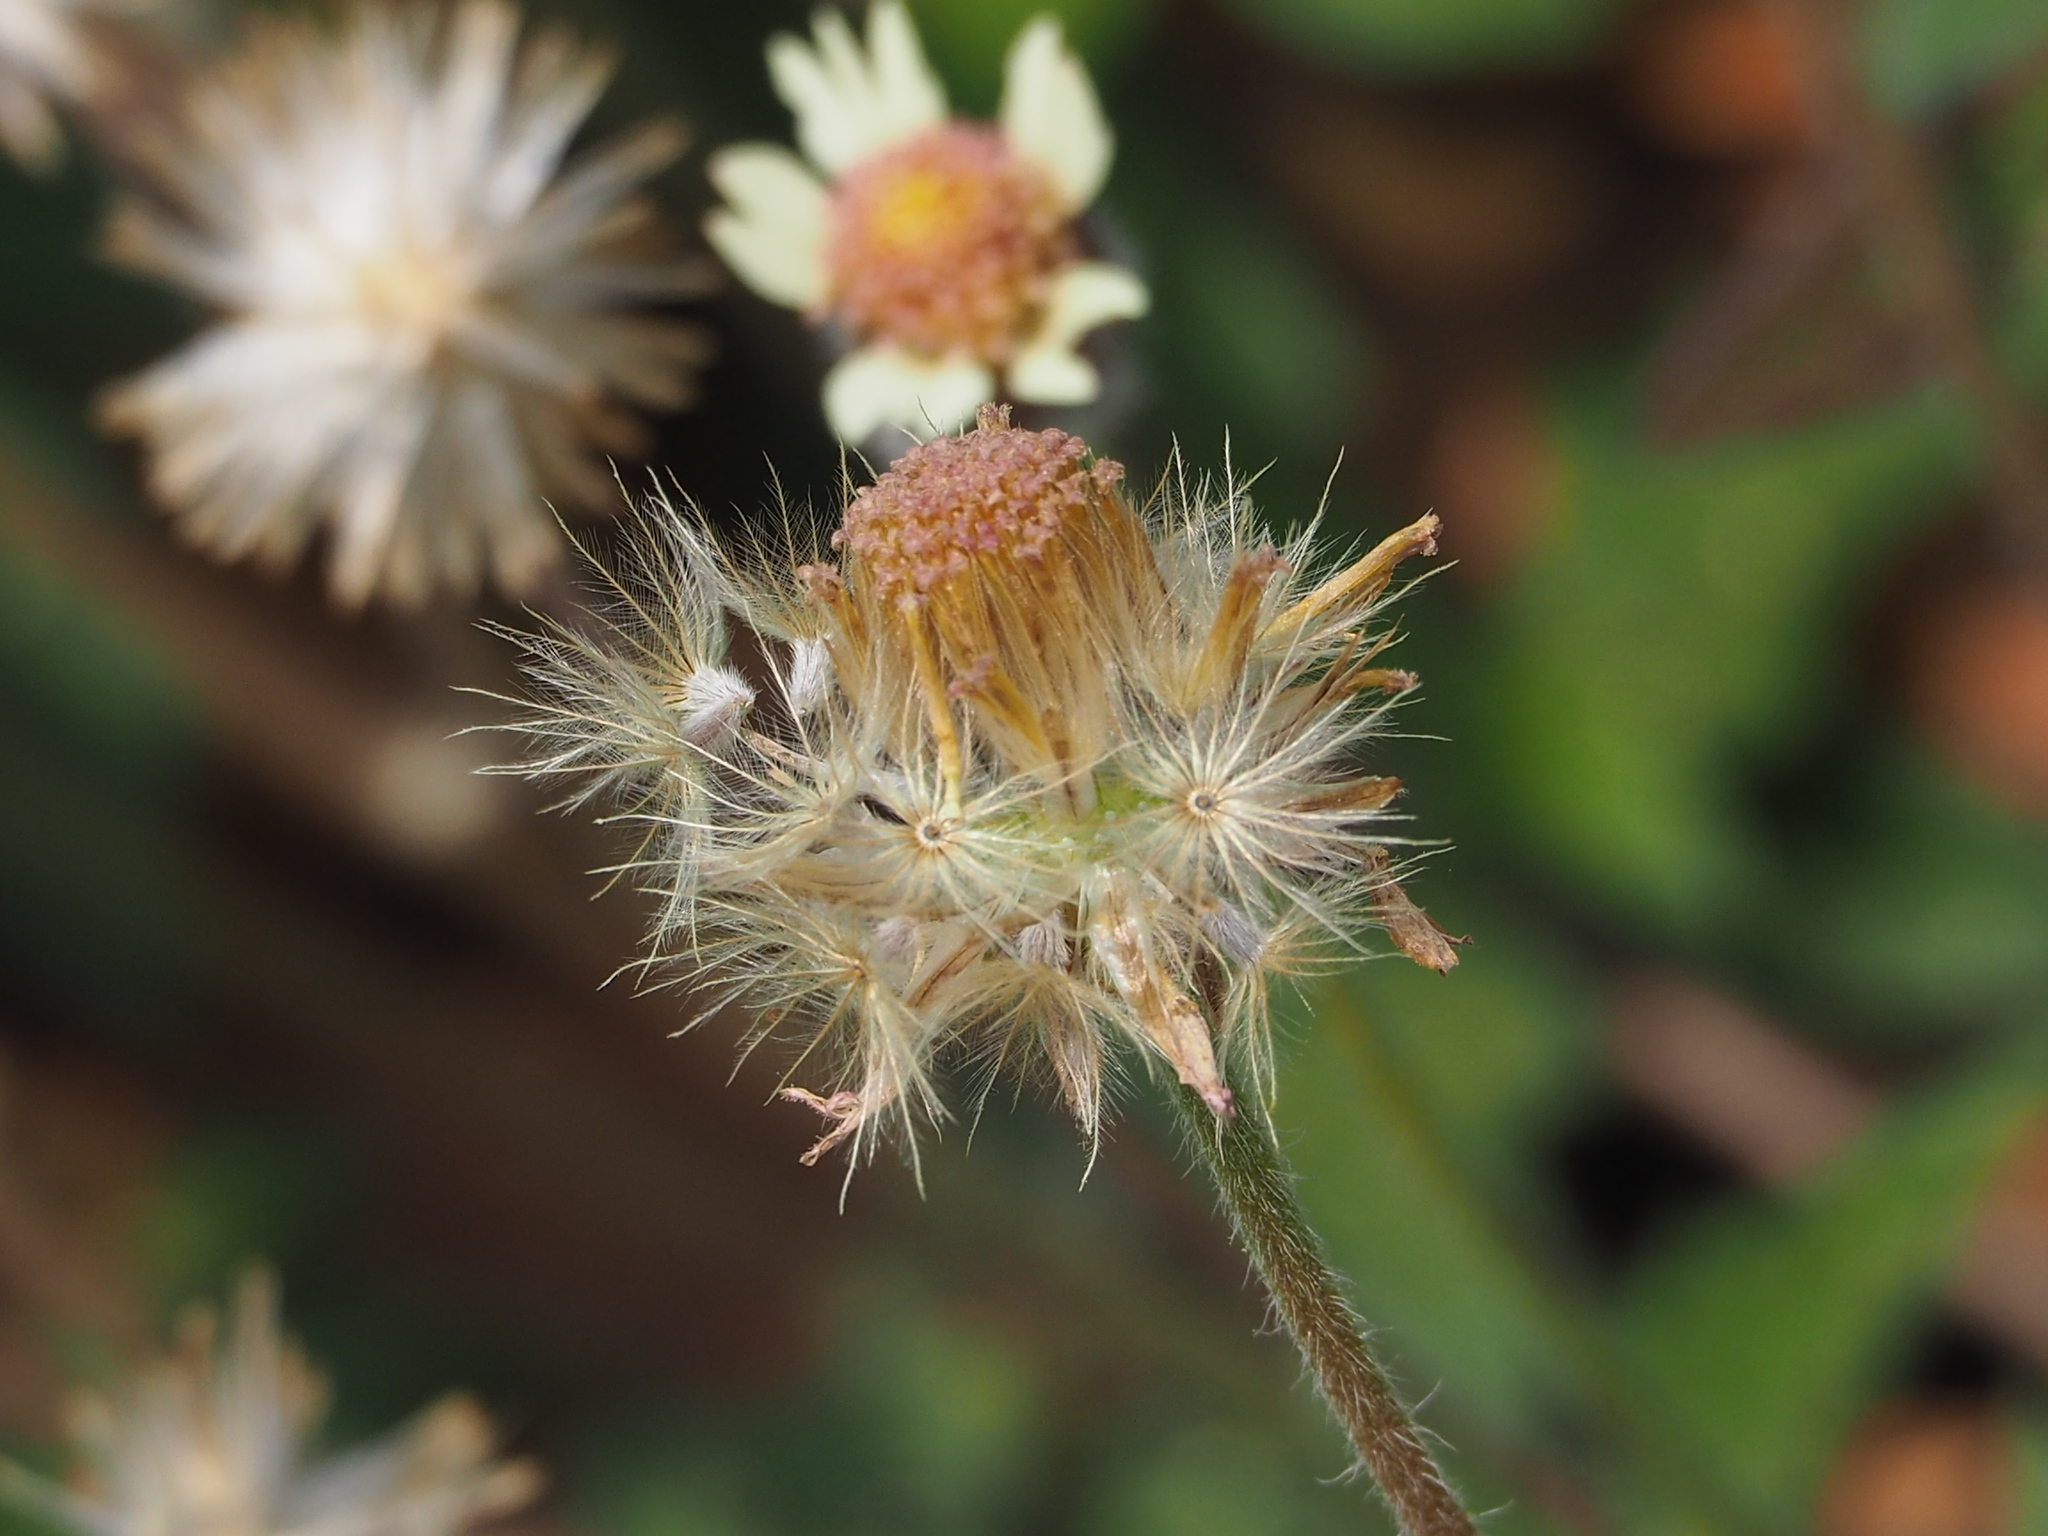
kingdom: Plantae
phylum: Tracheophyta
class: Magnoliopsida
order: Asterales
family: Asteraceae
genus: Tridax
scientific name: Tridax procumbens
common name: Coatbuttons
